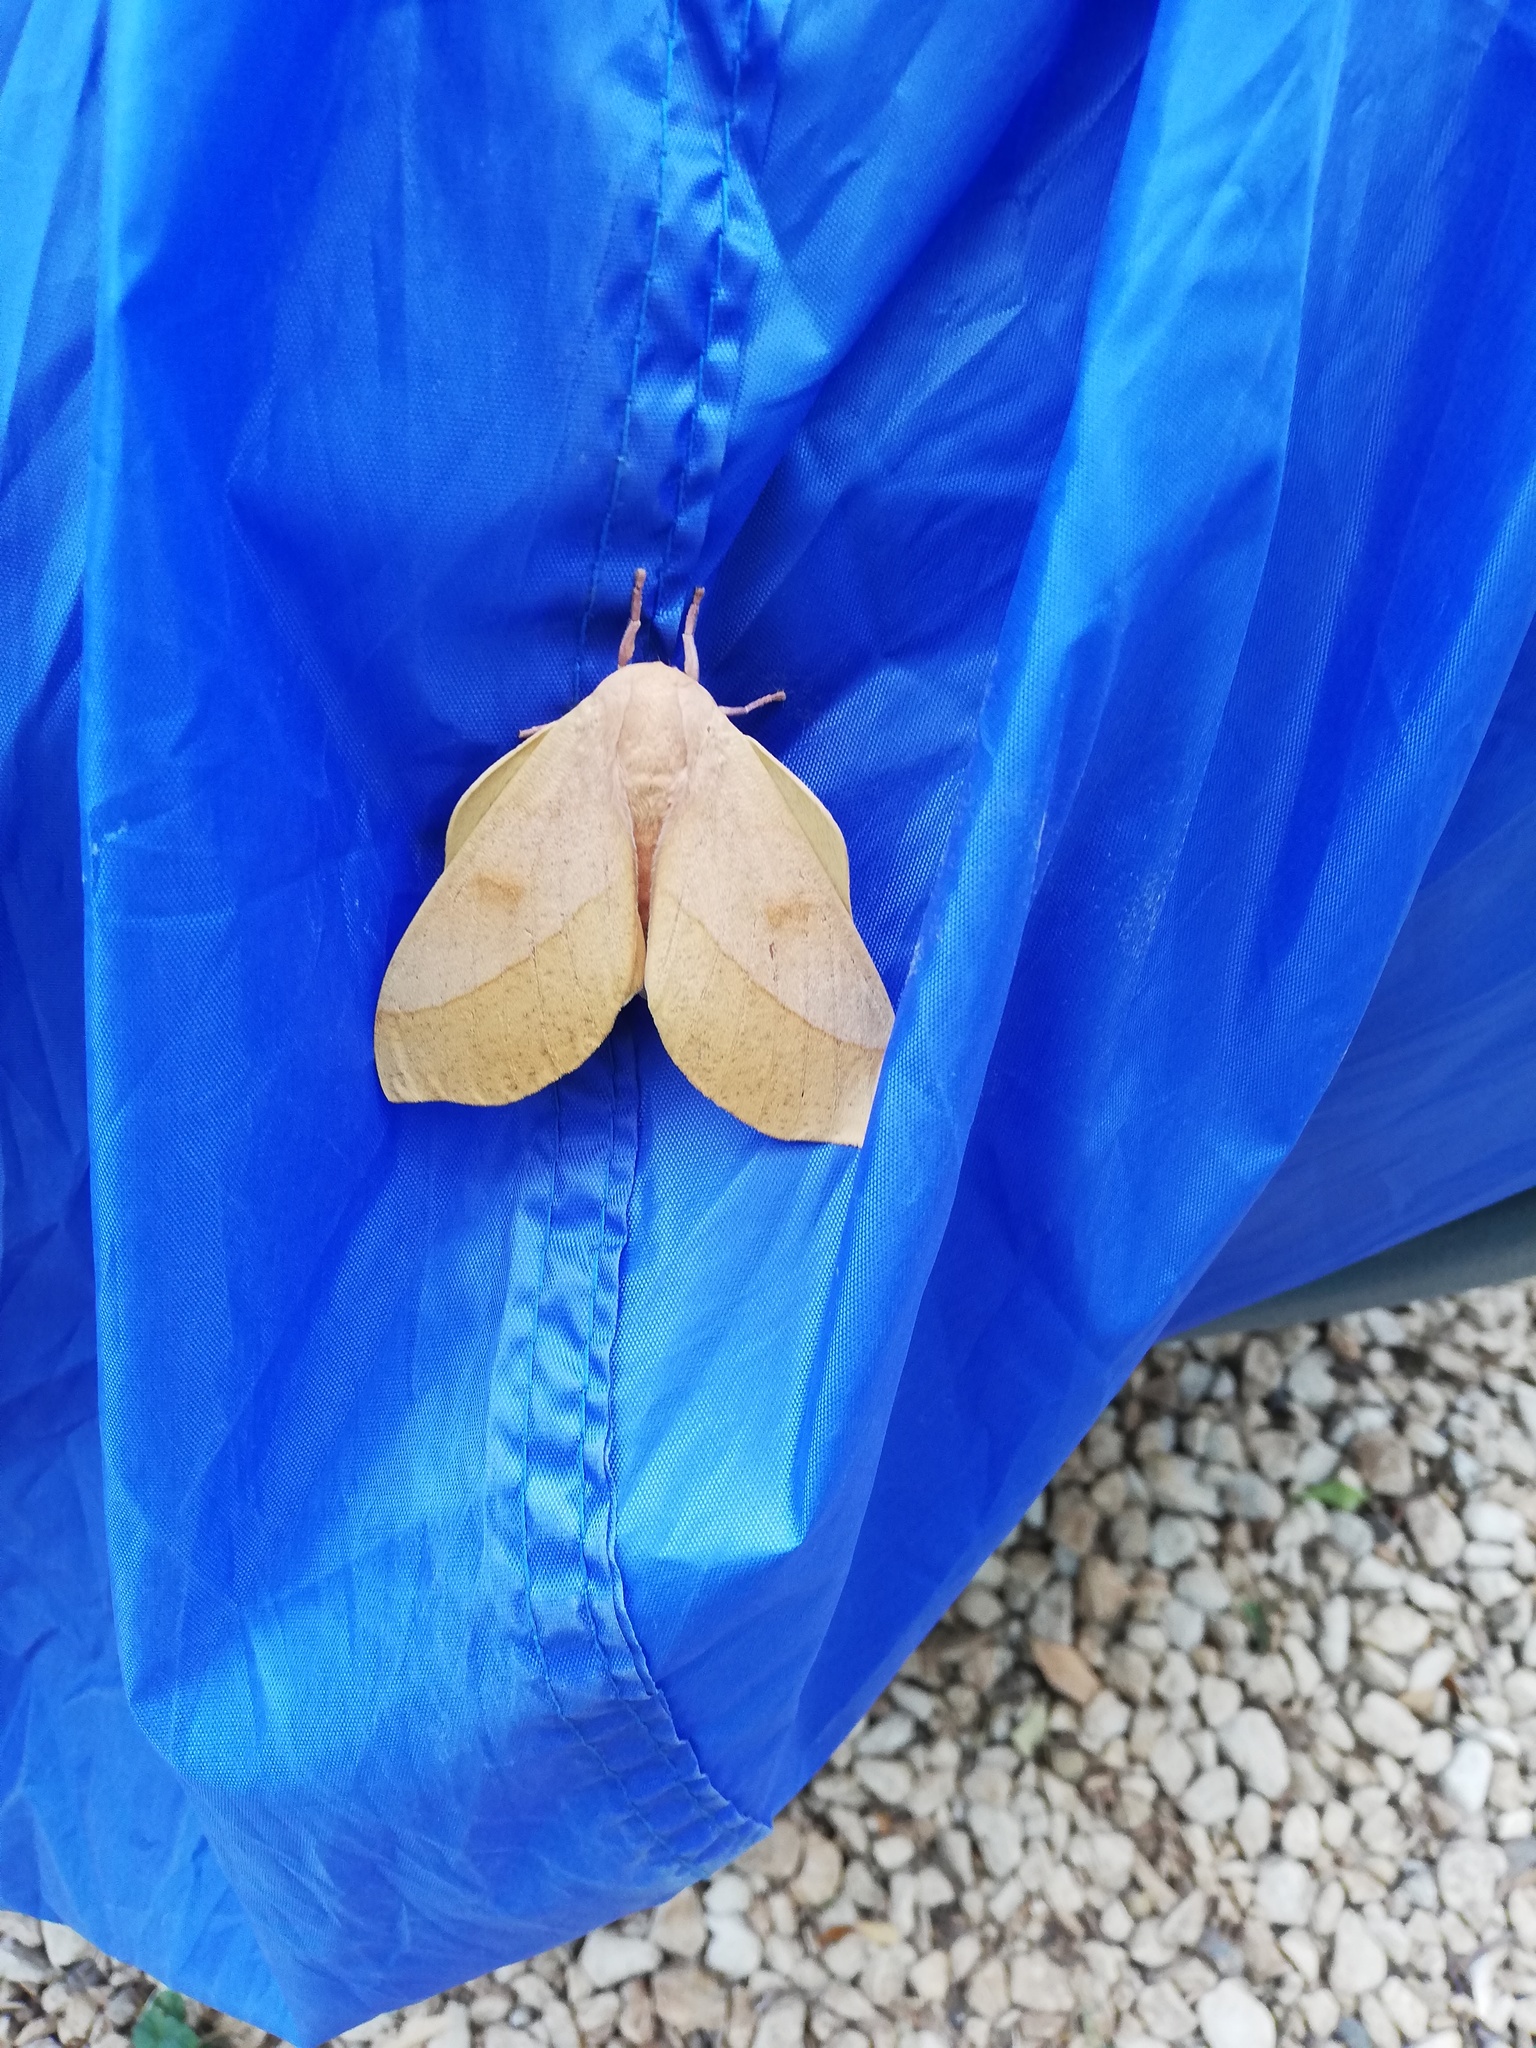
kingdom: Animalia
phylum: Arthropoda
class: Insecta
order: Lepidoptera
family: Saturniidae
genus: Syssphinx
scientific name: Syssphinx molina
